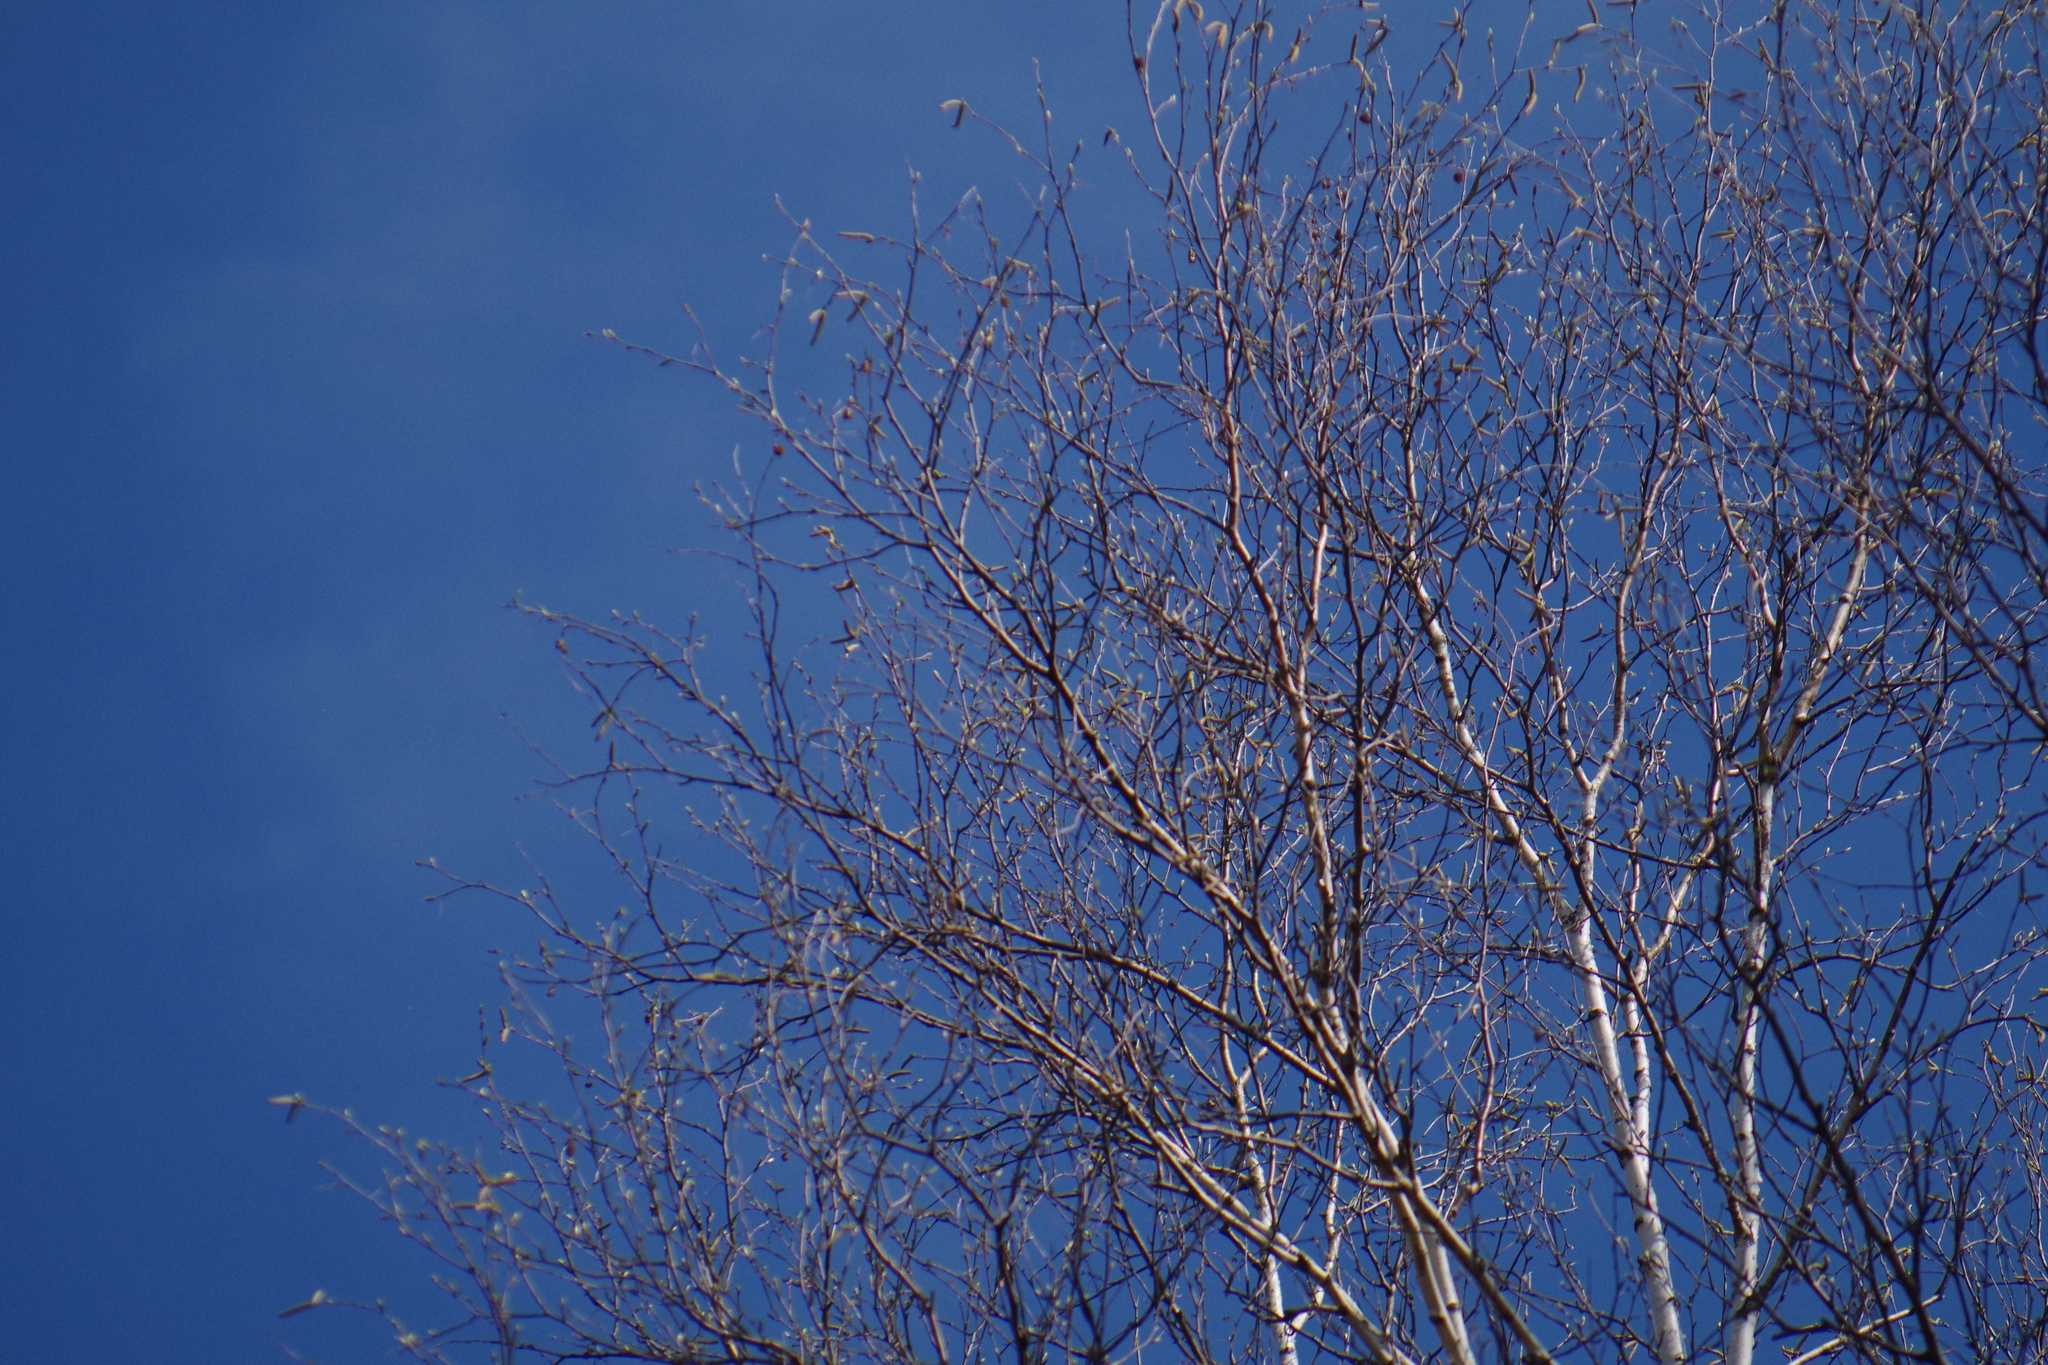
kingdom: Plantae
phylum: Tracheophyta
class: Magnoliopsida
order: Fagales
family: Betulaceae
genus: Betula
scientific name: Betula papyrifera
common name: Paper birch
